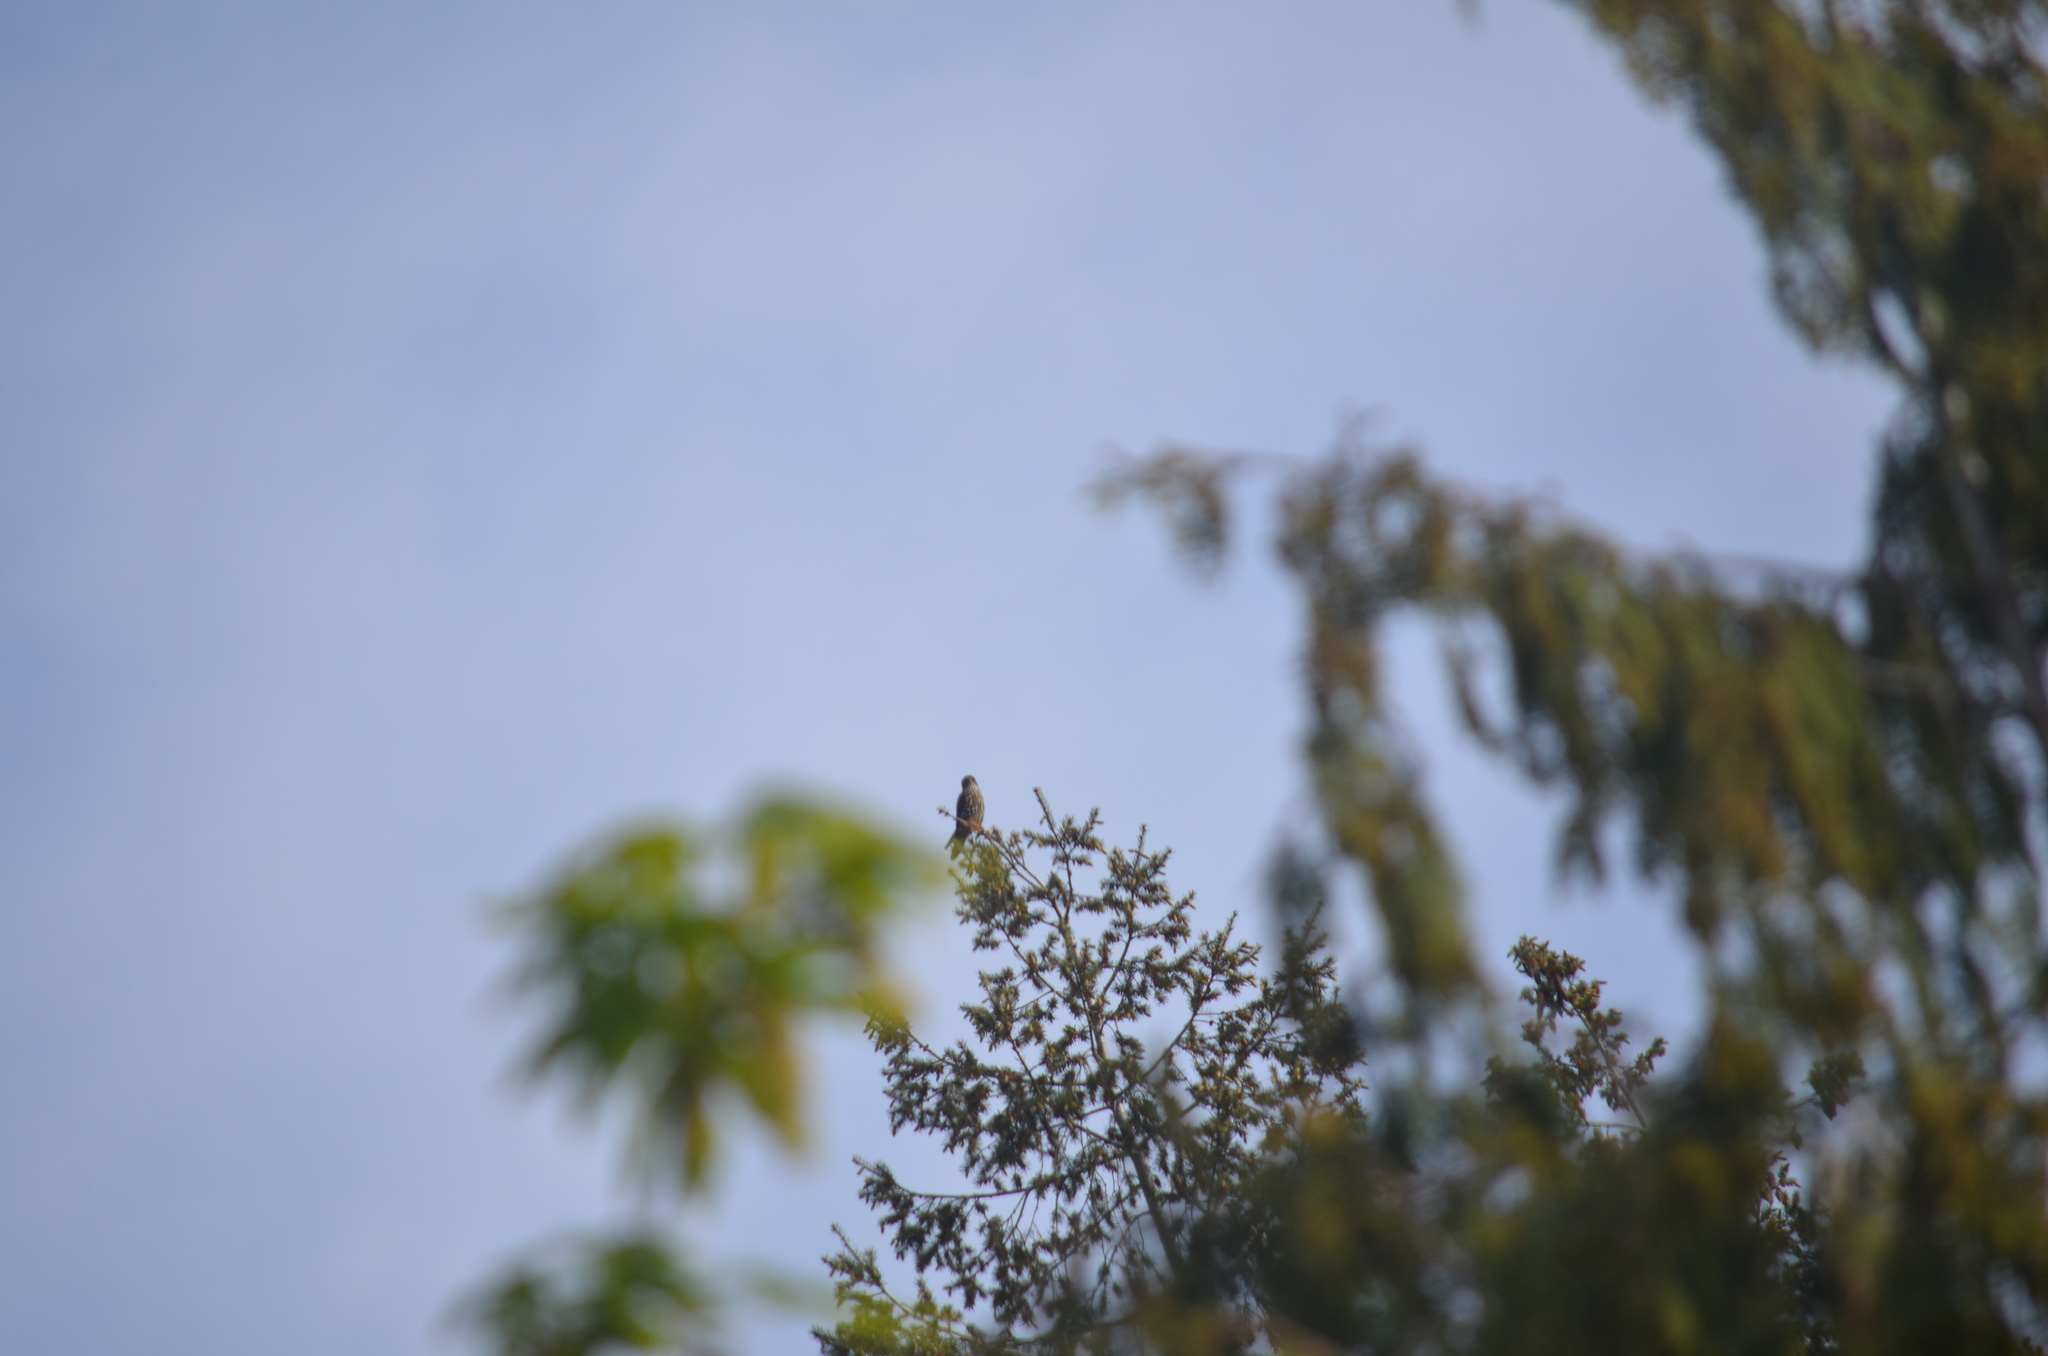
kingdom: Animalia
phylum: Chordata
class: Aves
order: Falconiformes
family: Falconidae
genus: Falco
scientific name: Falco columbarius
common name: Merlin
